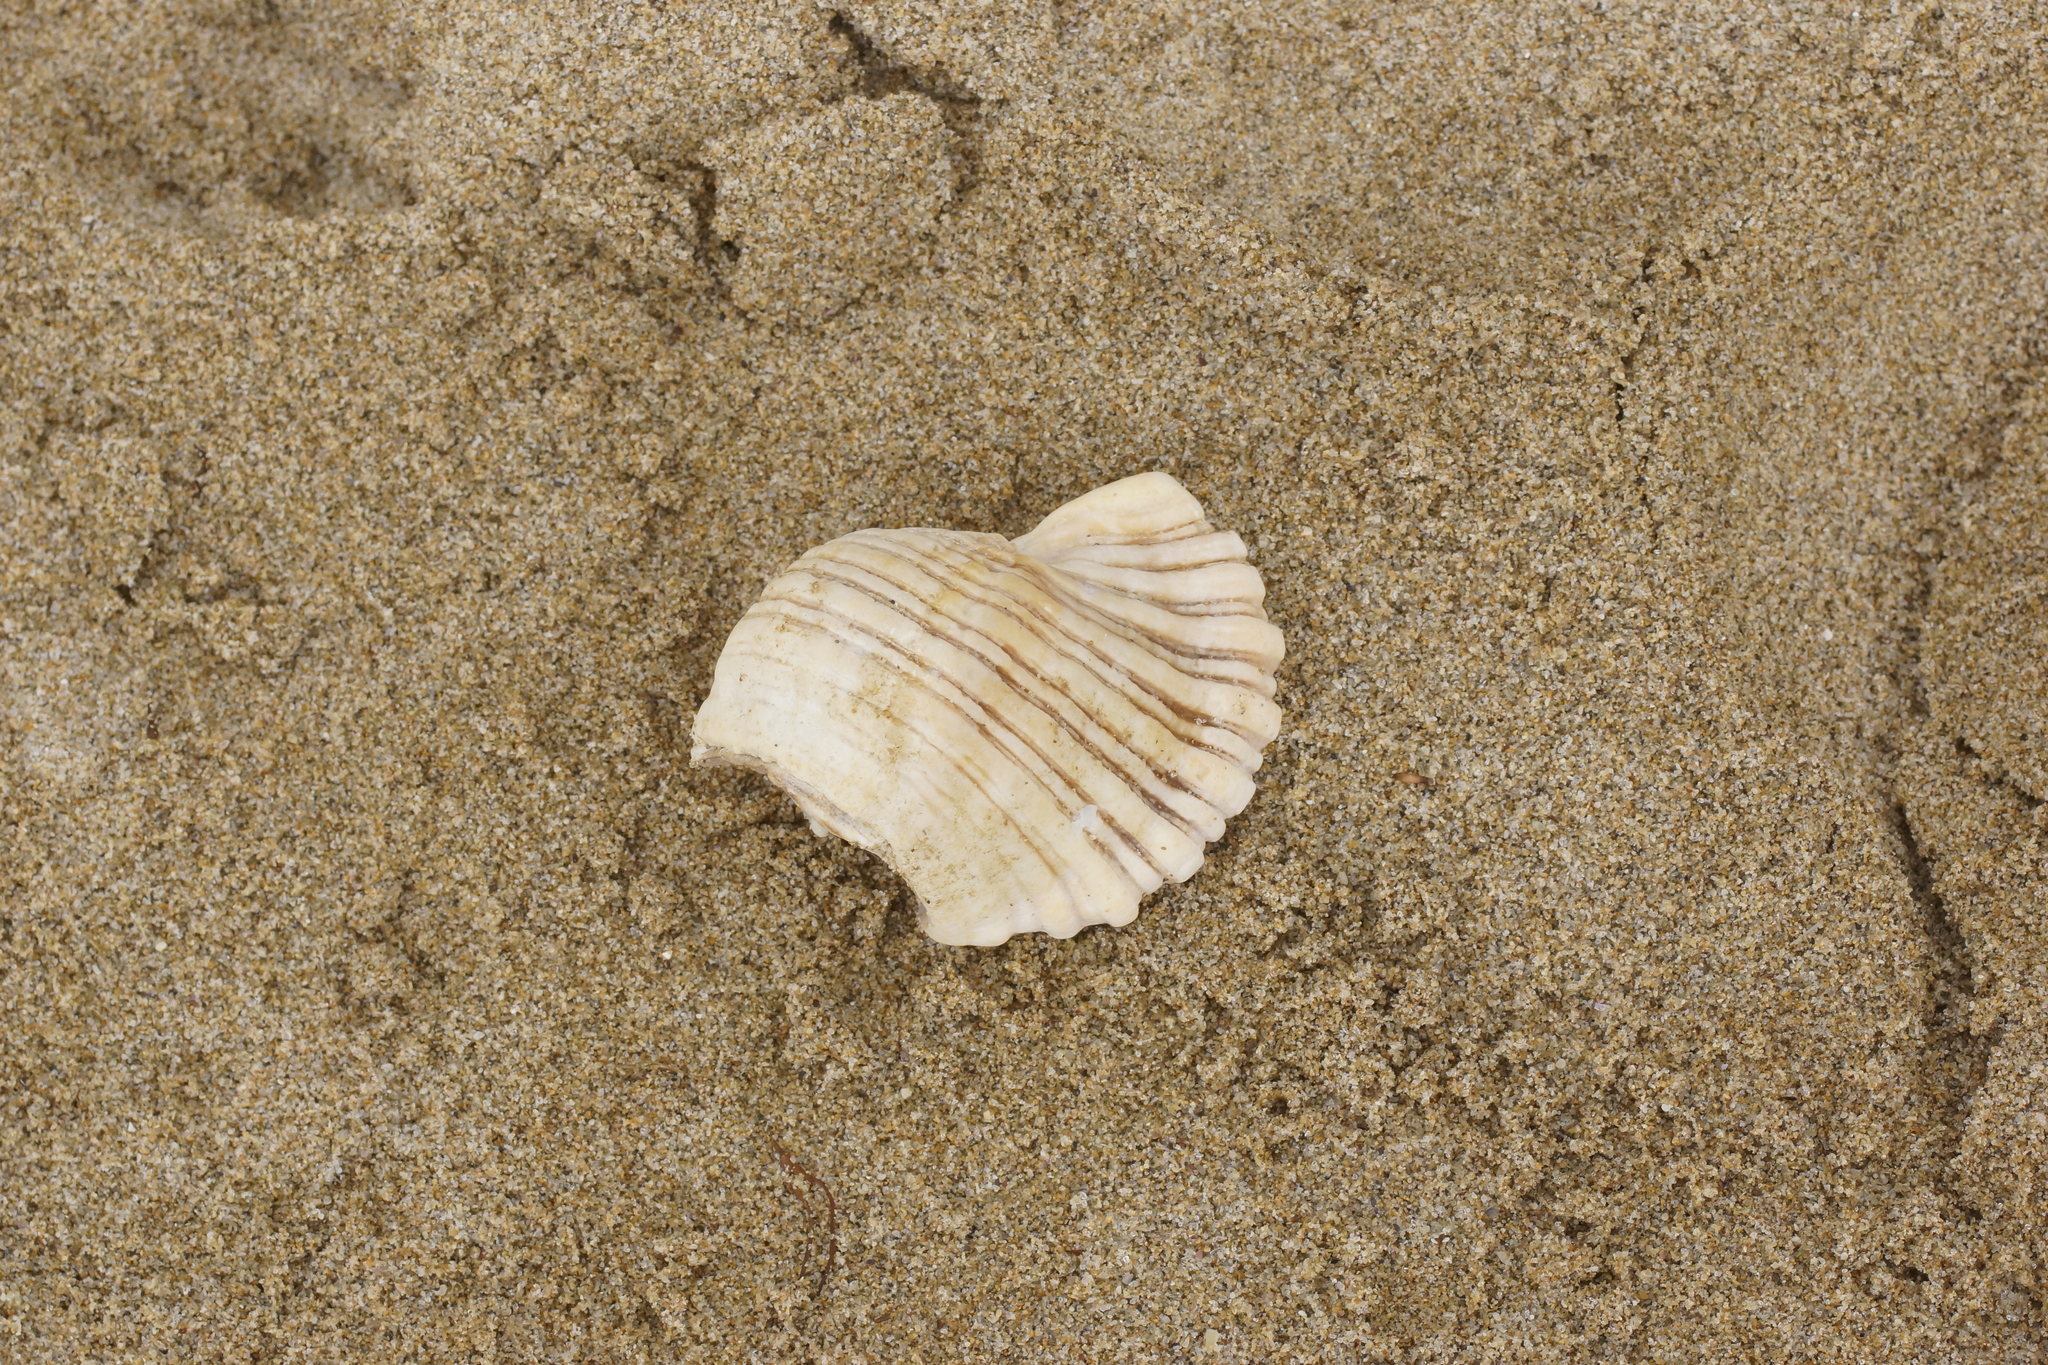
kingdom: Animalia
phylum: Mollusca
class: Gastropoda
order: Littorinimorpha
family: Cymatiidae
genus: Cabestana
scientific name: Cabestana spengleri
